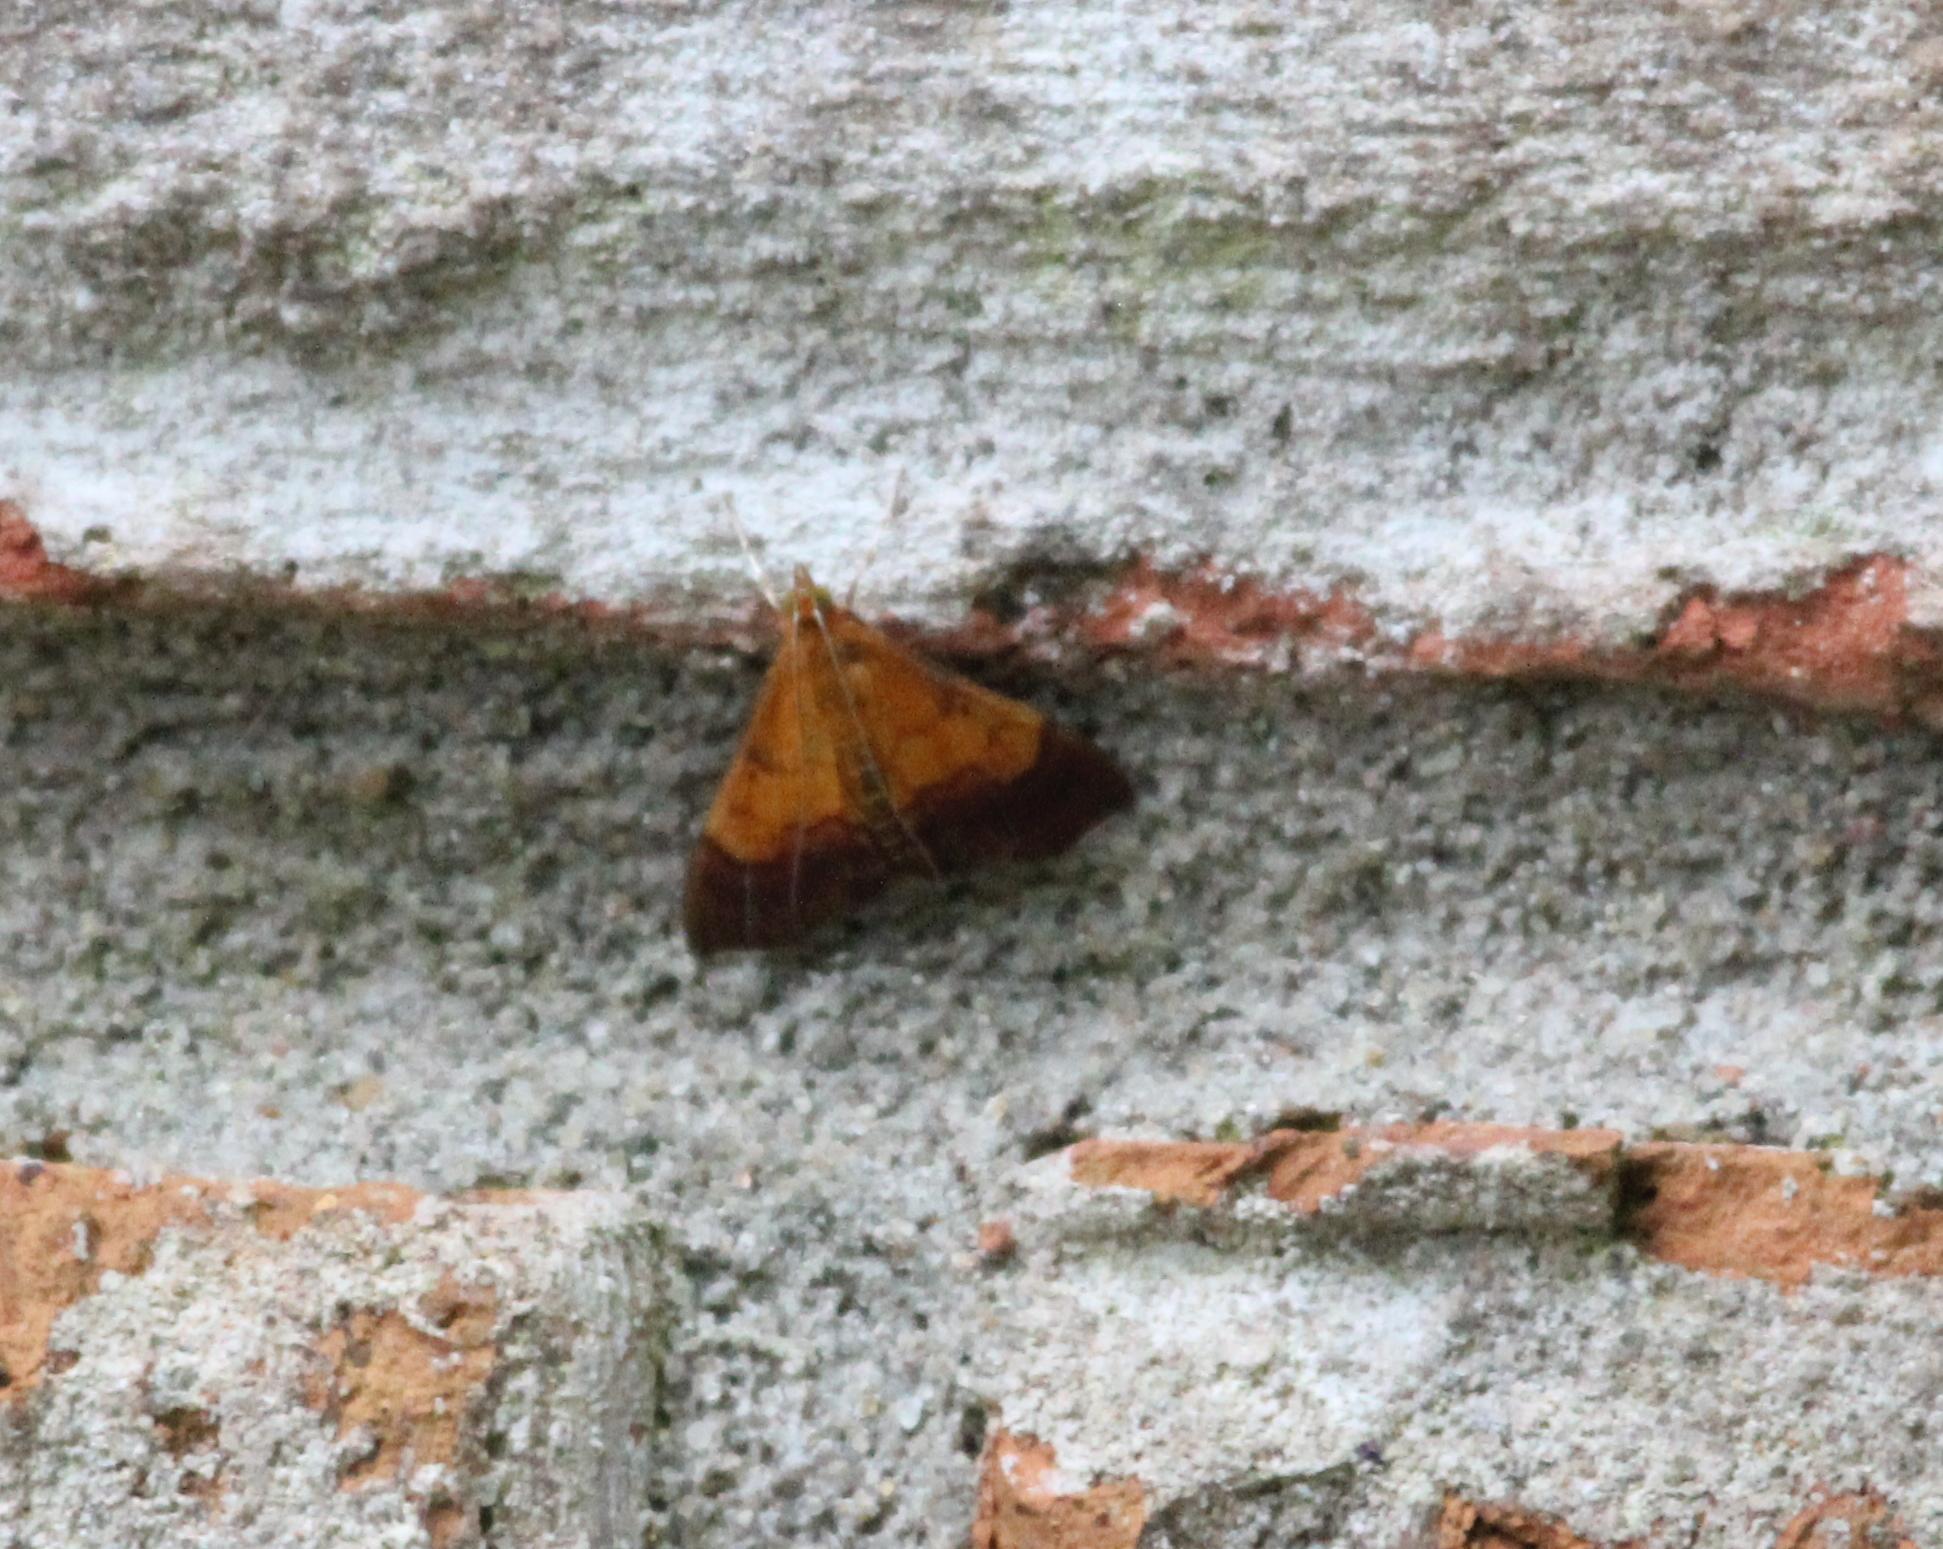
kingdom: Animalia
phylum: Arthropoda
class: Insecta
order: Lepidoptera
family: Crambidae
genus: Pyrausta
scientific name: Pyrausta bicoloralis
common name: Bicolored pyrausta moth
